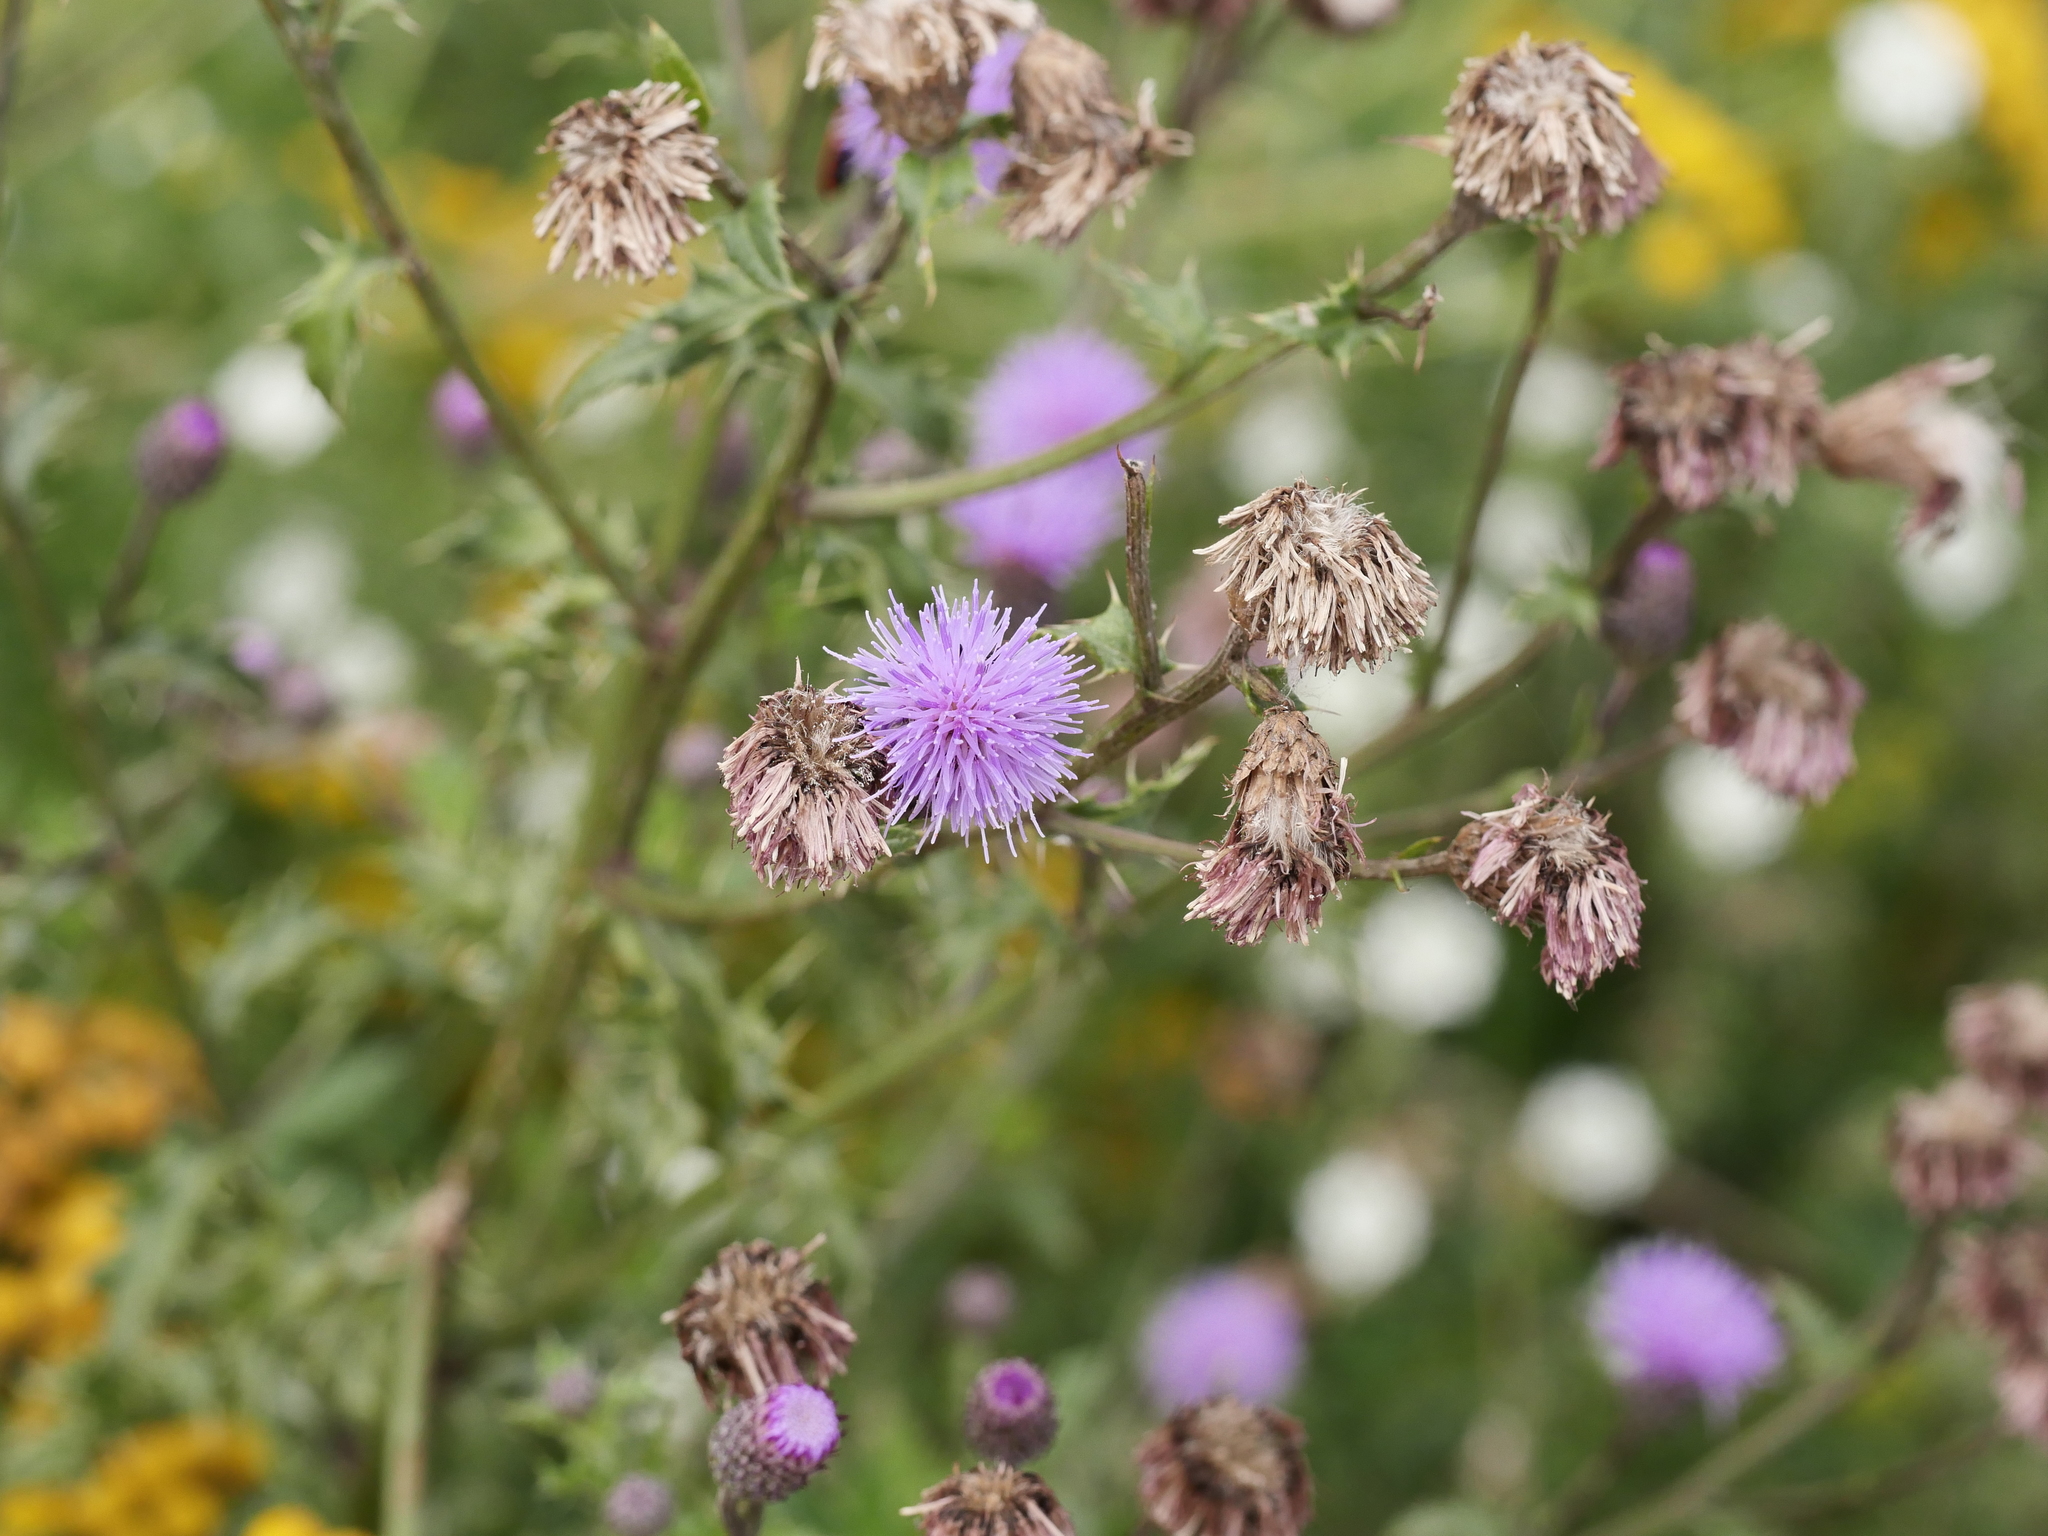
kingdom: Plantae
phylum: Tracheophyta
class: Magnoliopsida
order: Asterales
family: Asteraceae
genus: Cirsium
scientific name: Cirsium arvense
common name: Creeping thistle
